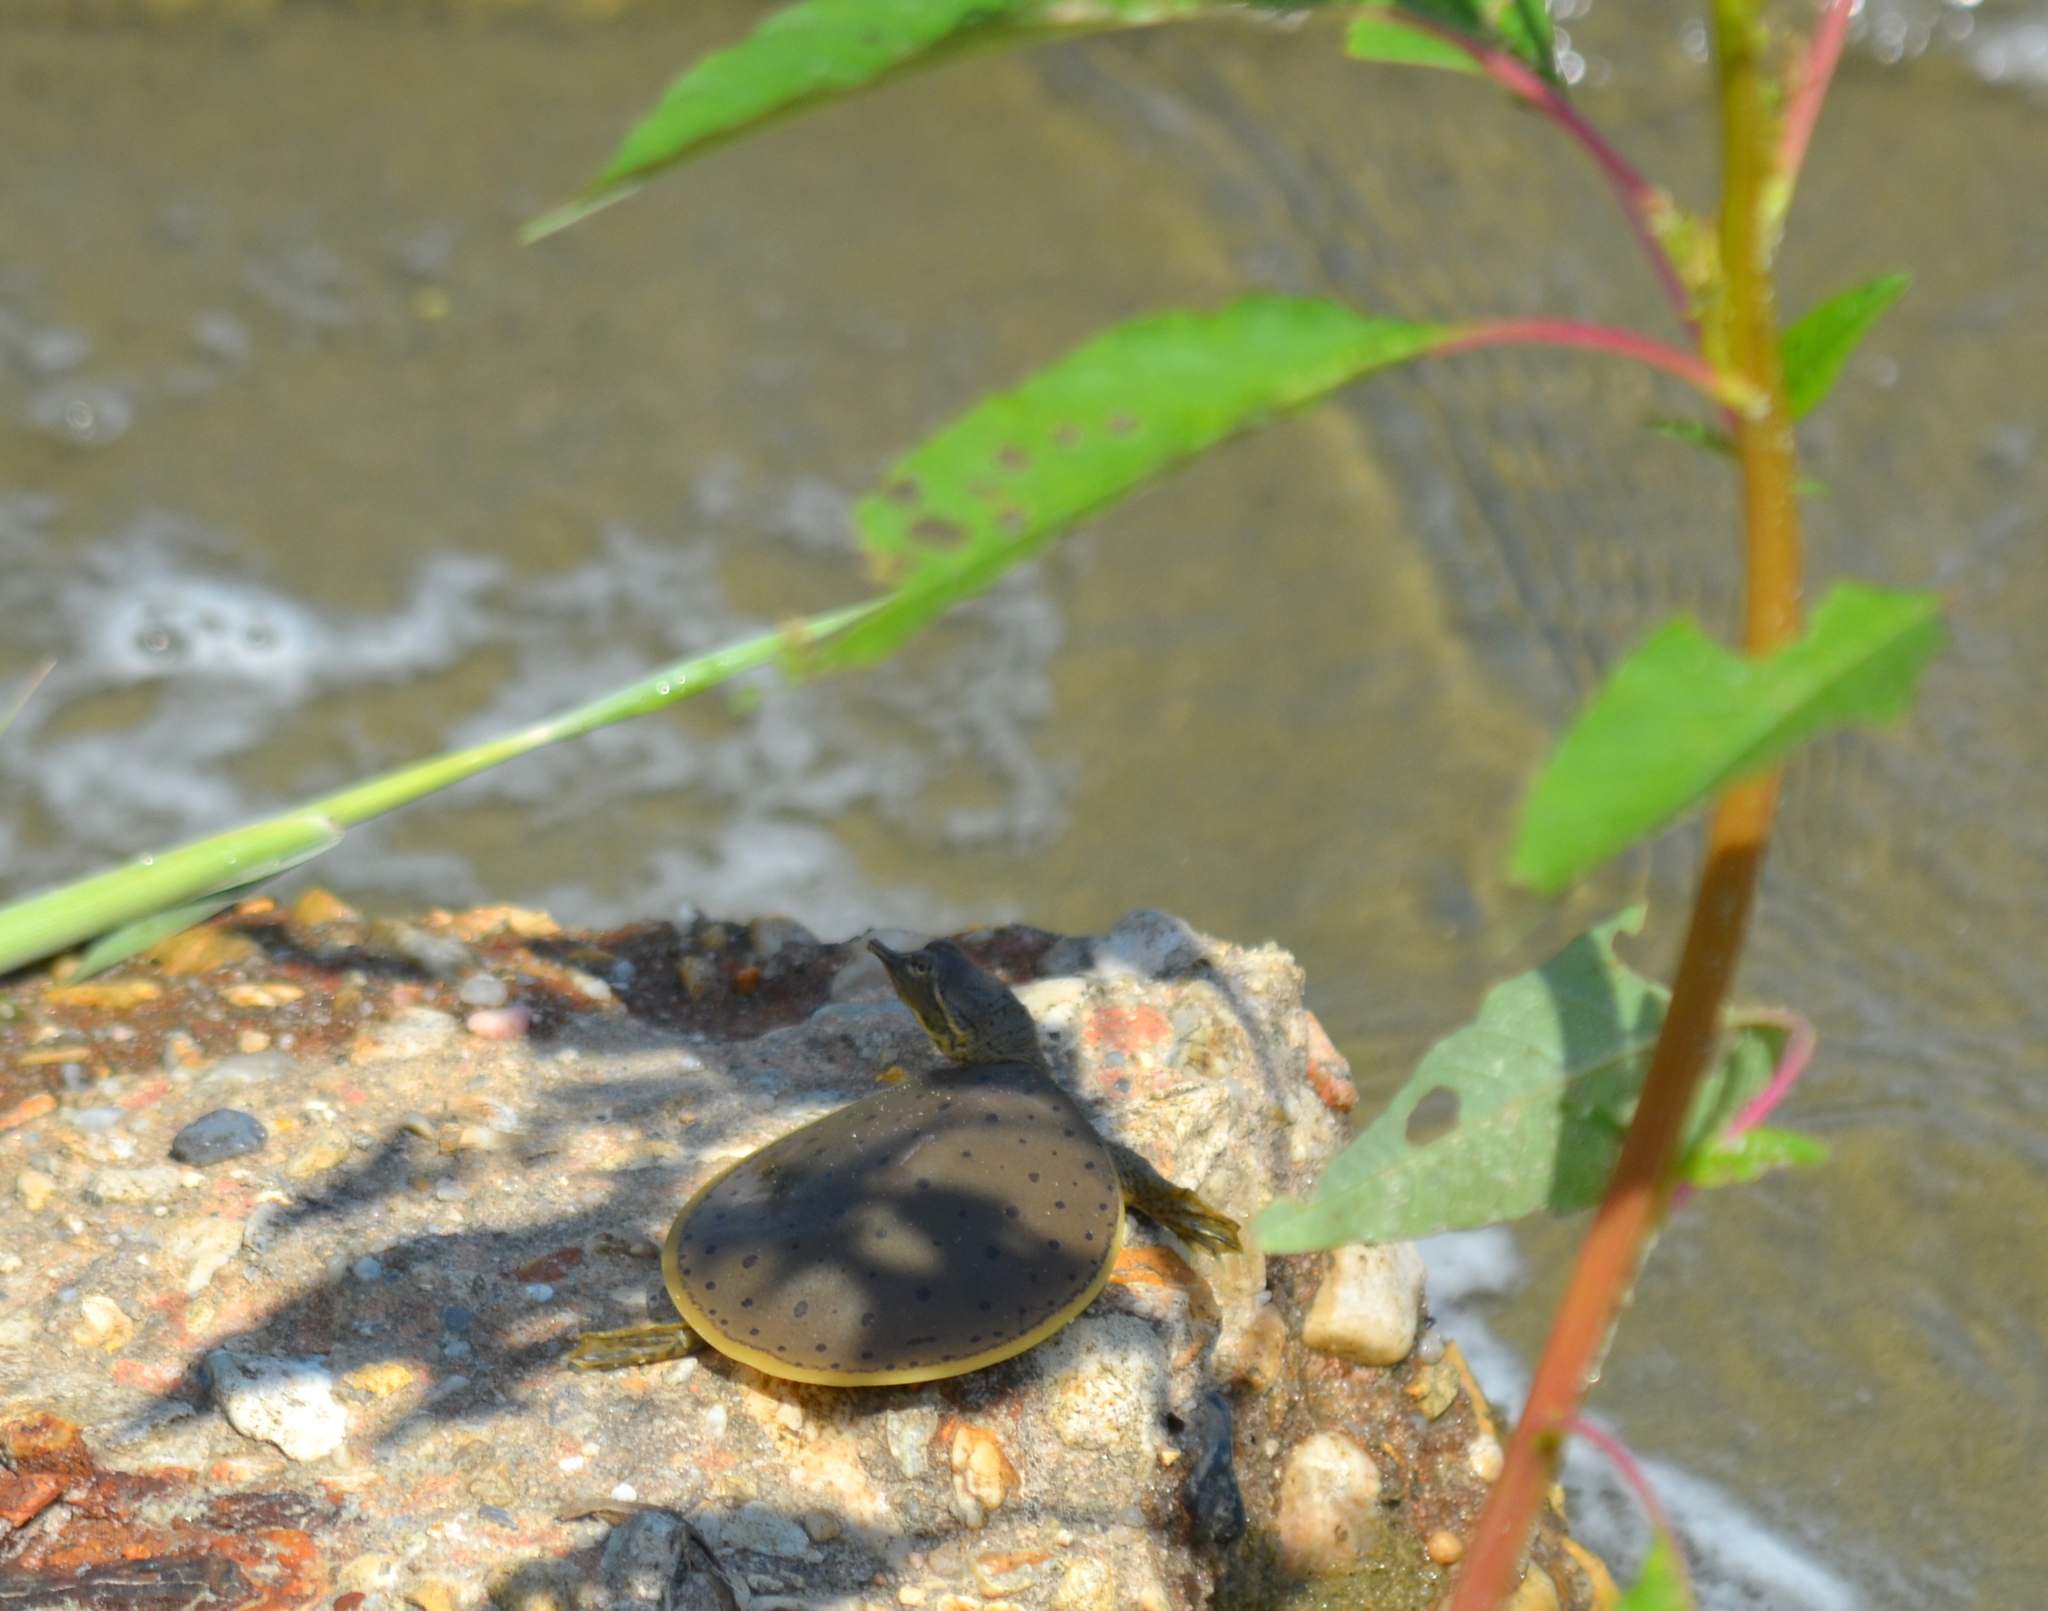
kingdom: Animalia
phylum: Chordata
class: Testudines
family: Trionychidae
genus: Apalone
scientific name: Apalone spinifera
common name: Spiny softshell turtle
